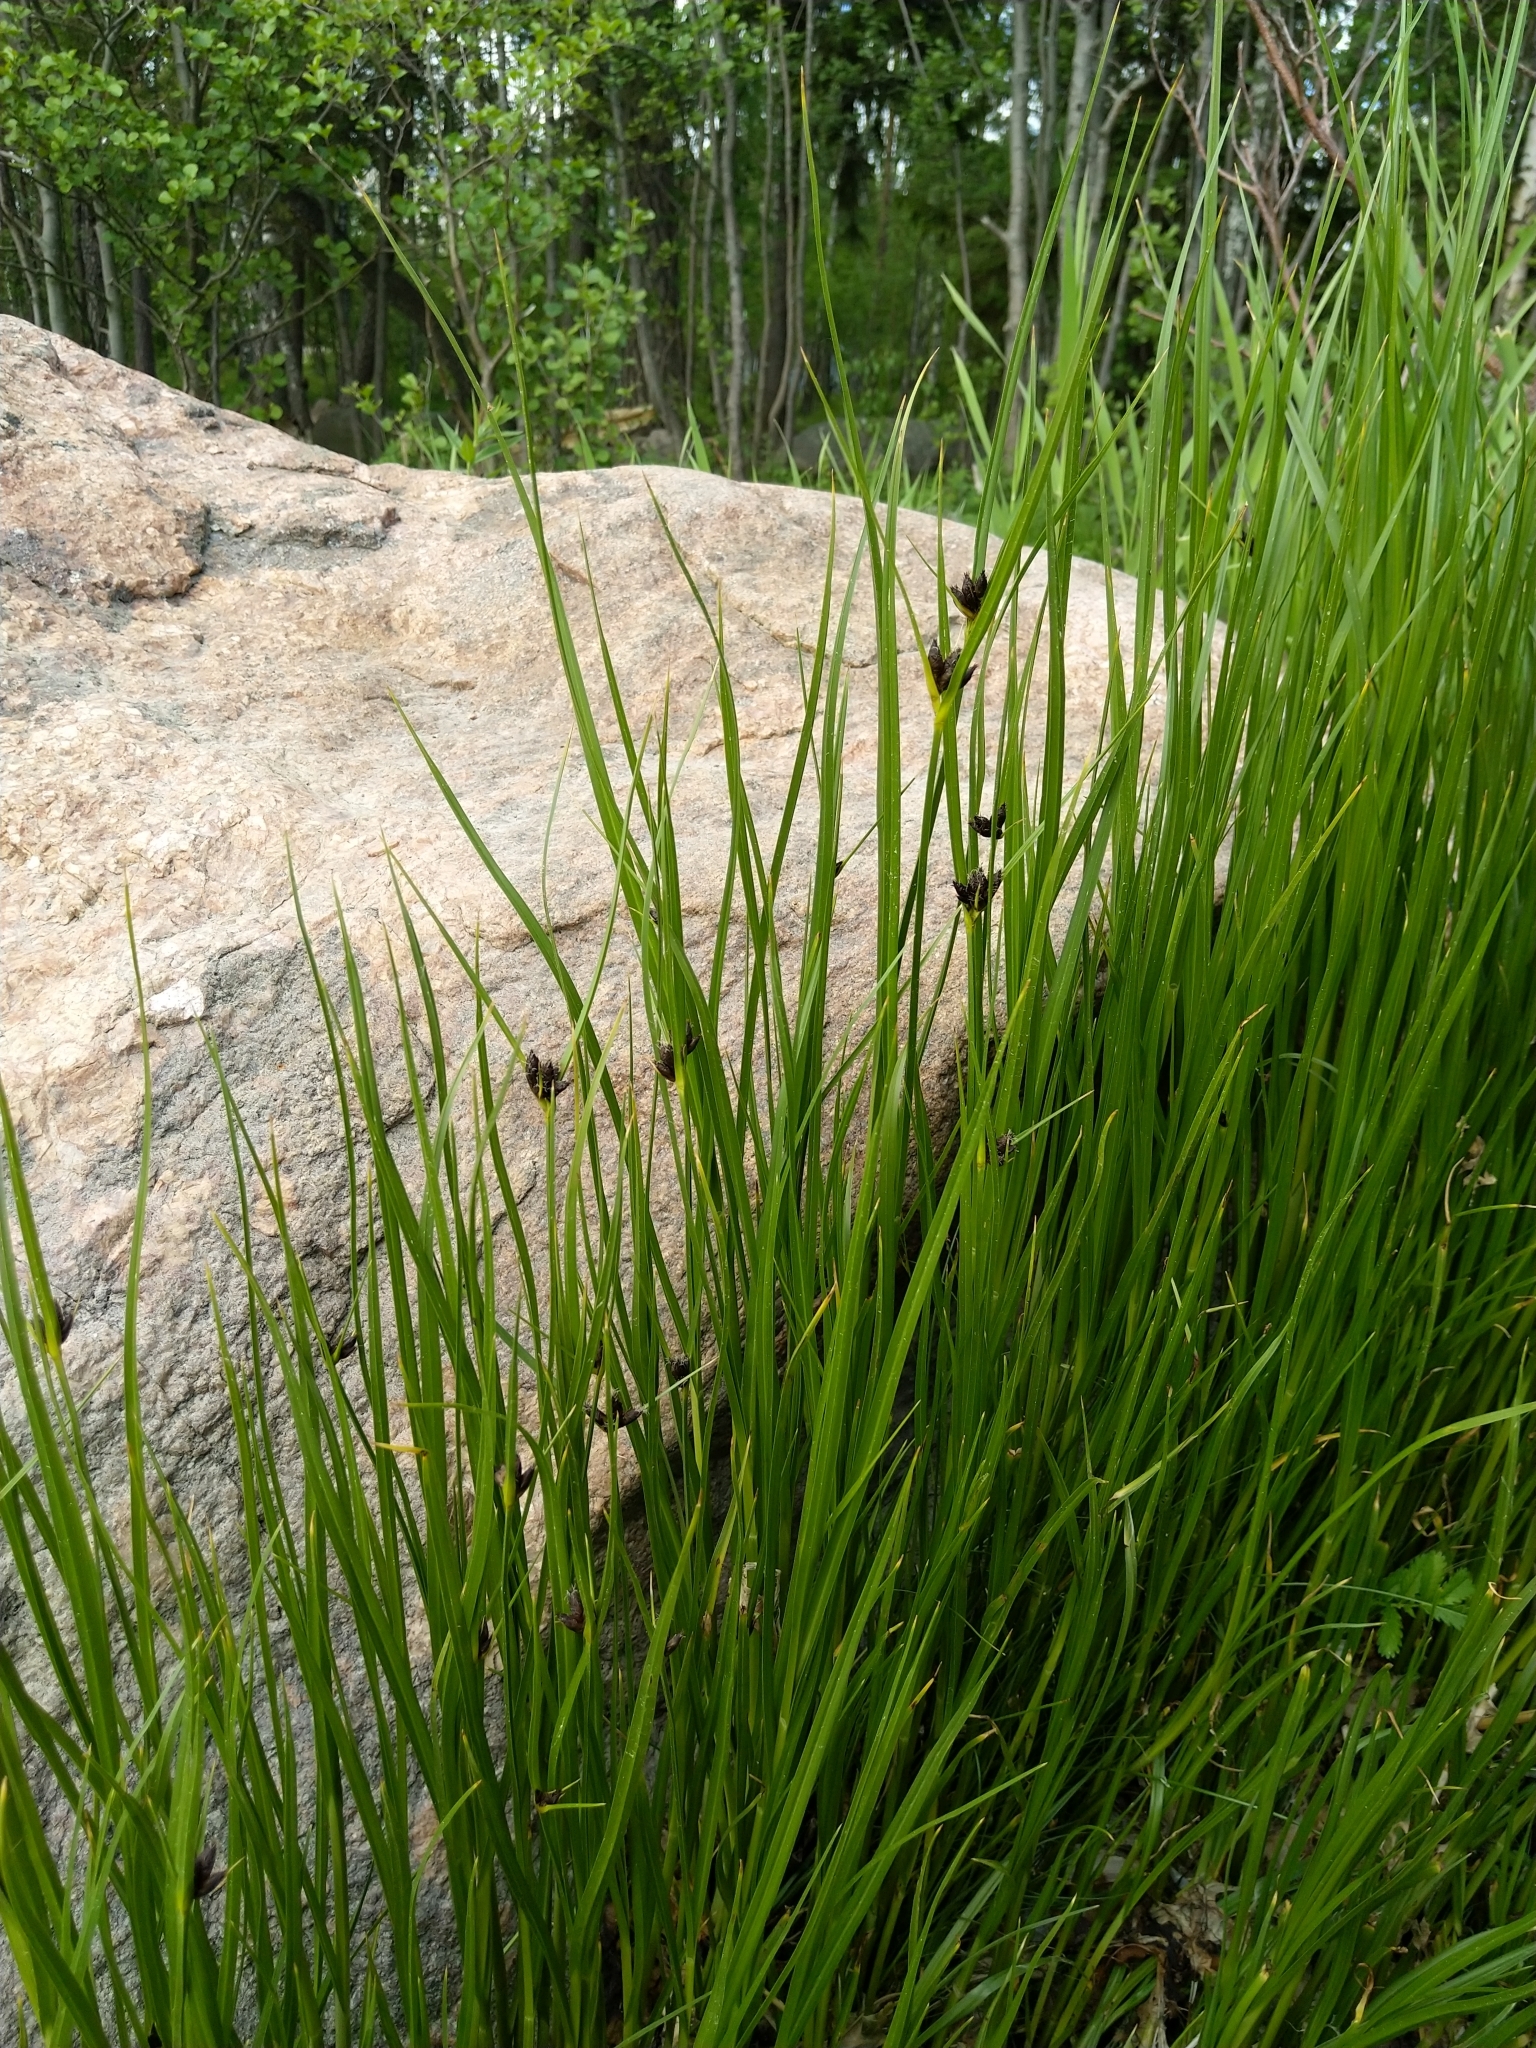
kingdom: Plantae
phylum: Tracheophyta
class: Liliopsida
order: Poales
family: Cyperaceae
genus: Bolboschoenus
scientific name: Bolboschoenus maritimus
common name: Sea club-rush
